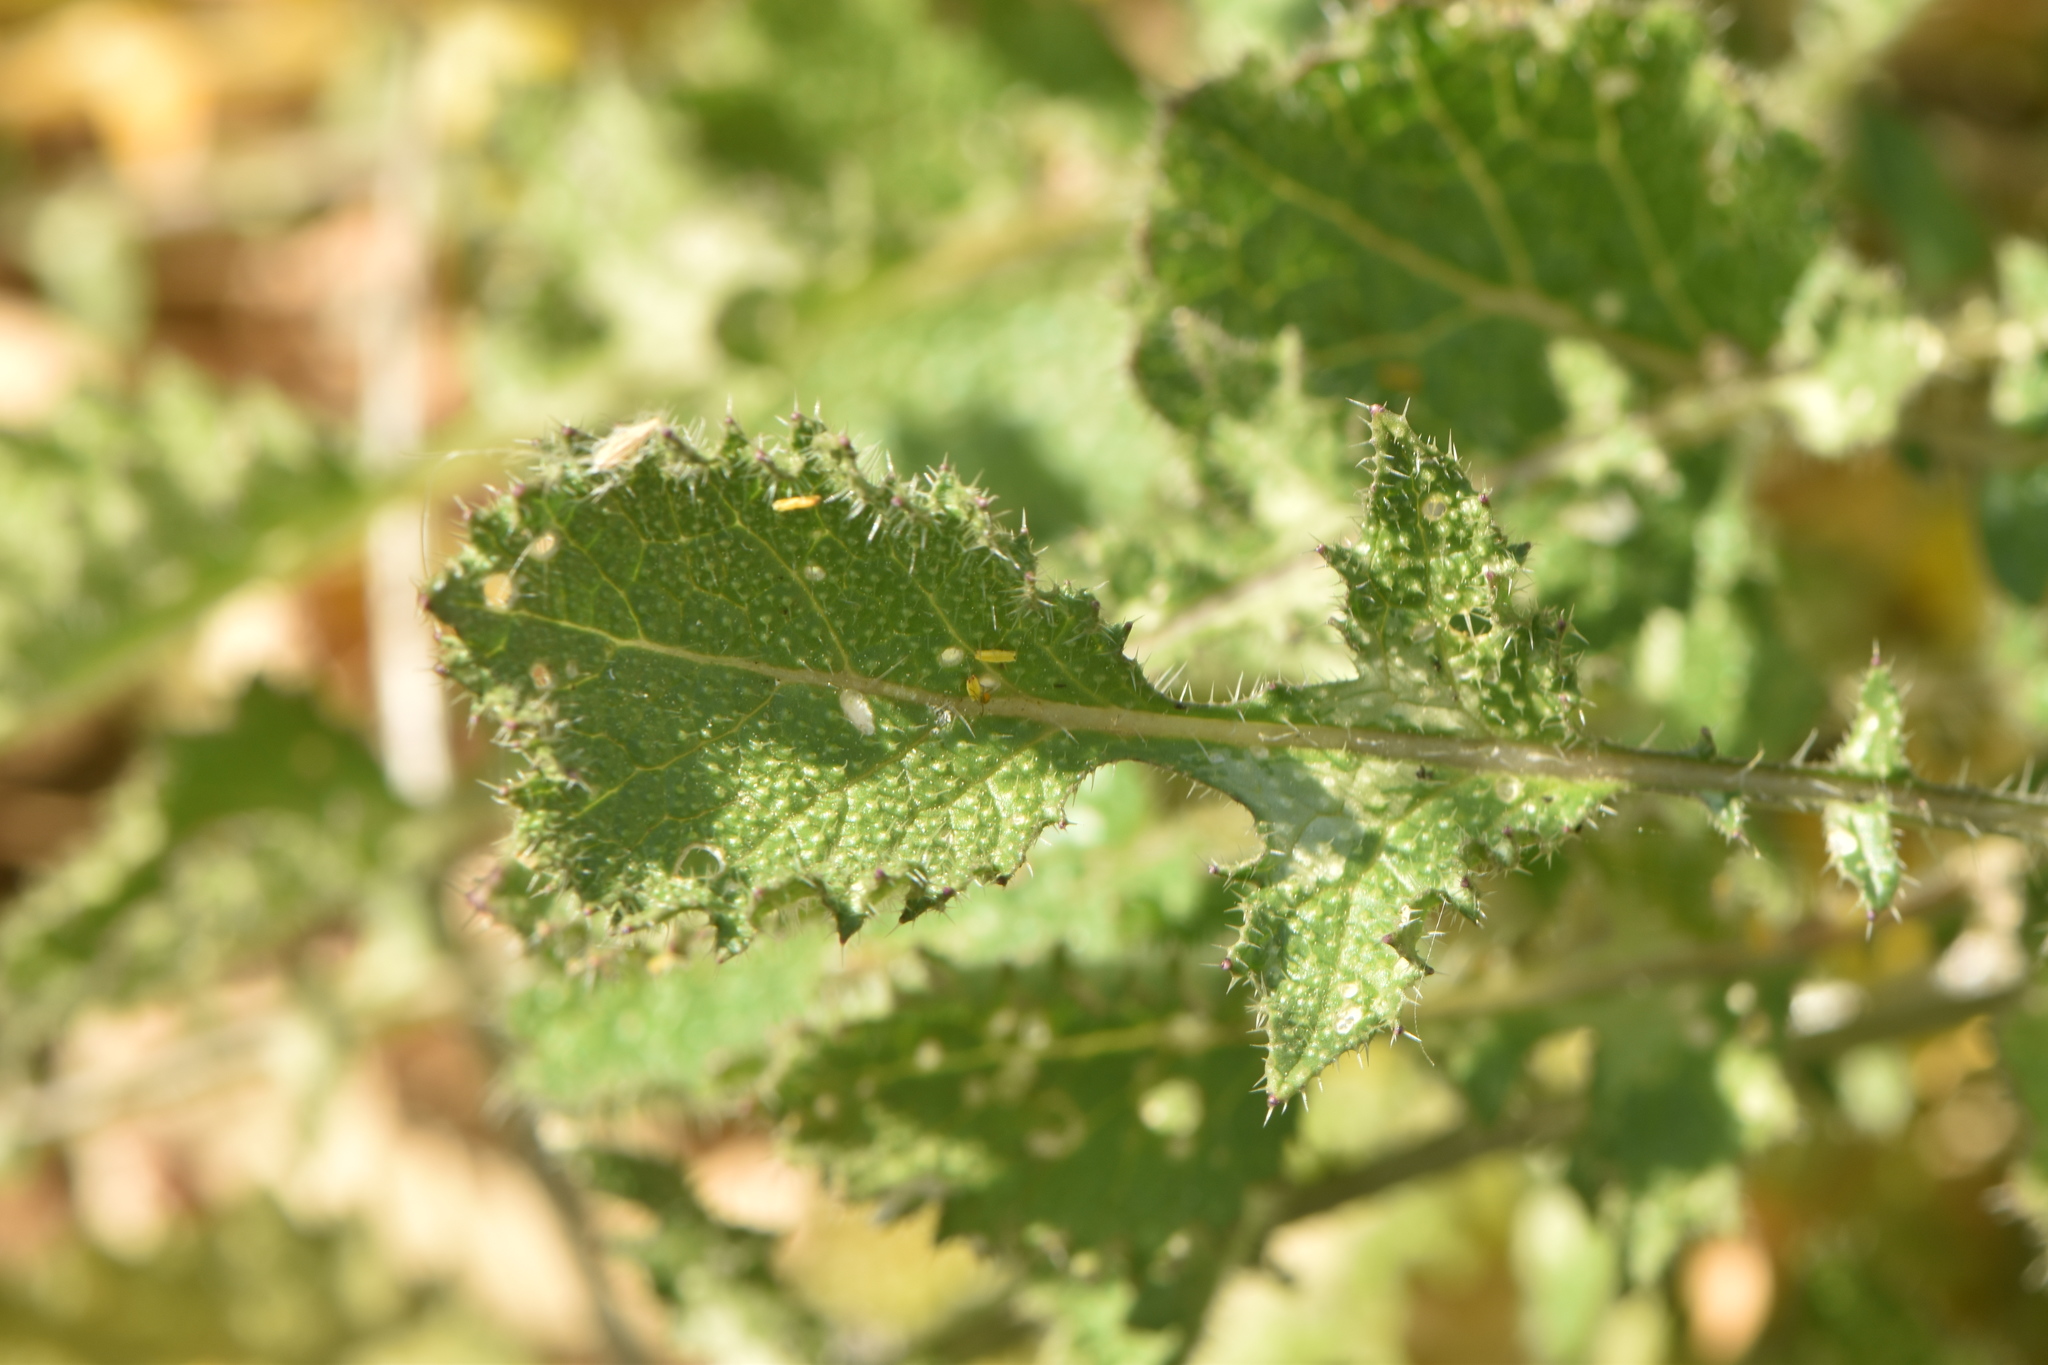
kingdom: Plantae
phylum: Tracheophyta
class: Magnoliopsida
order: Brassicales
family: Brassicaceae
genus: Crambe
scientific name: Crambe filiformis
